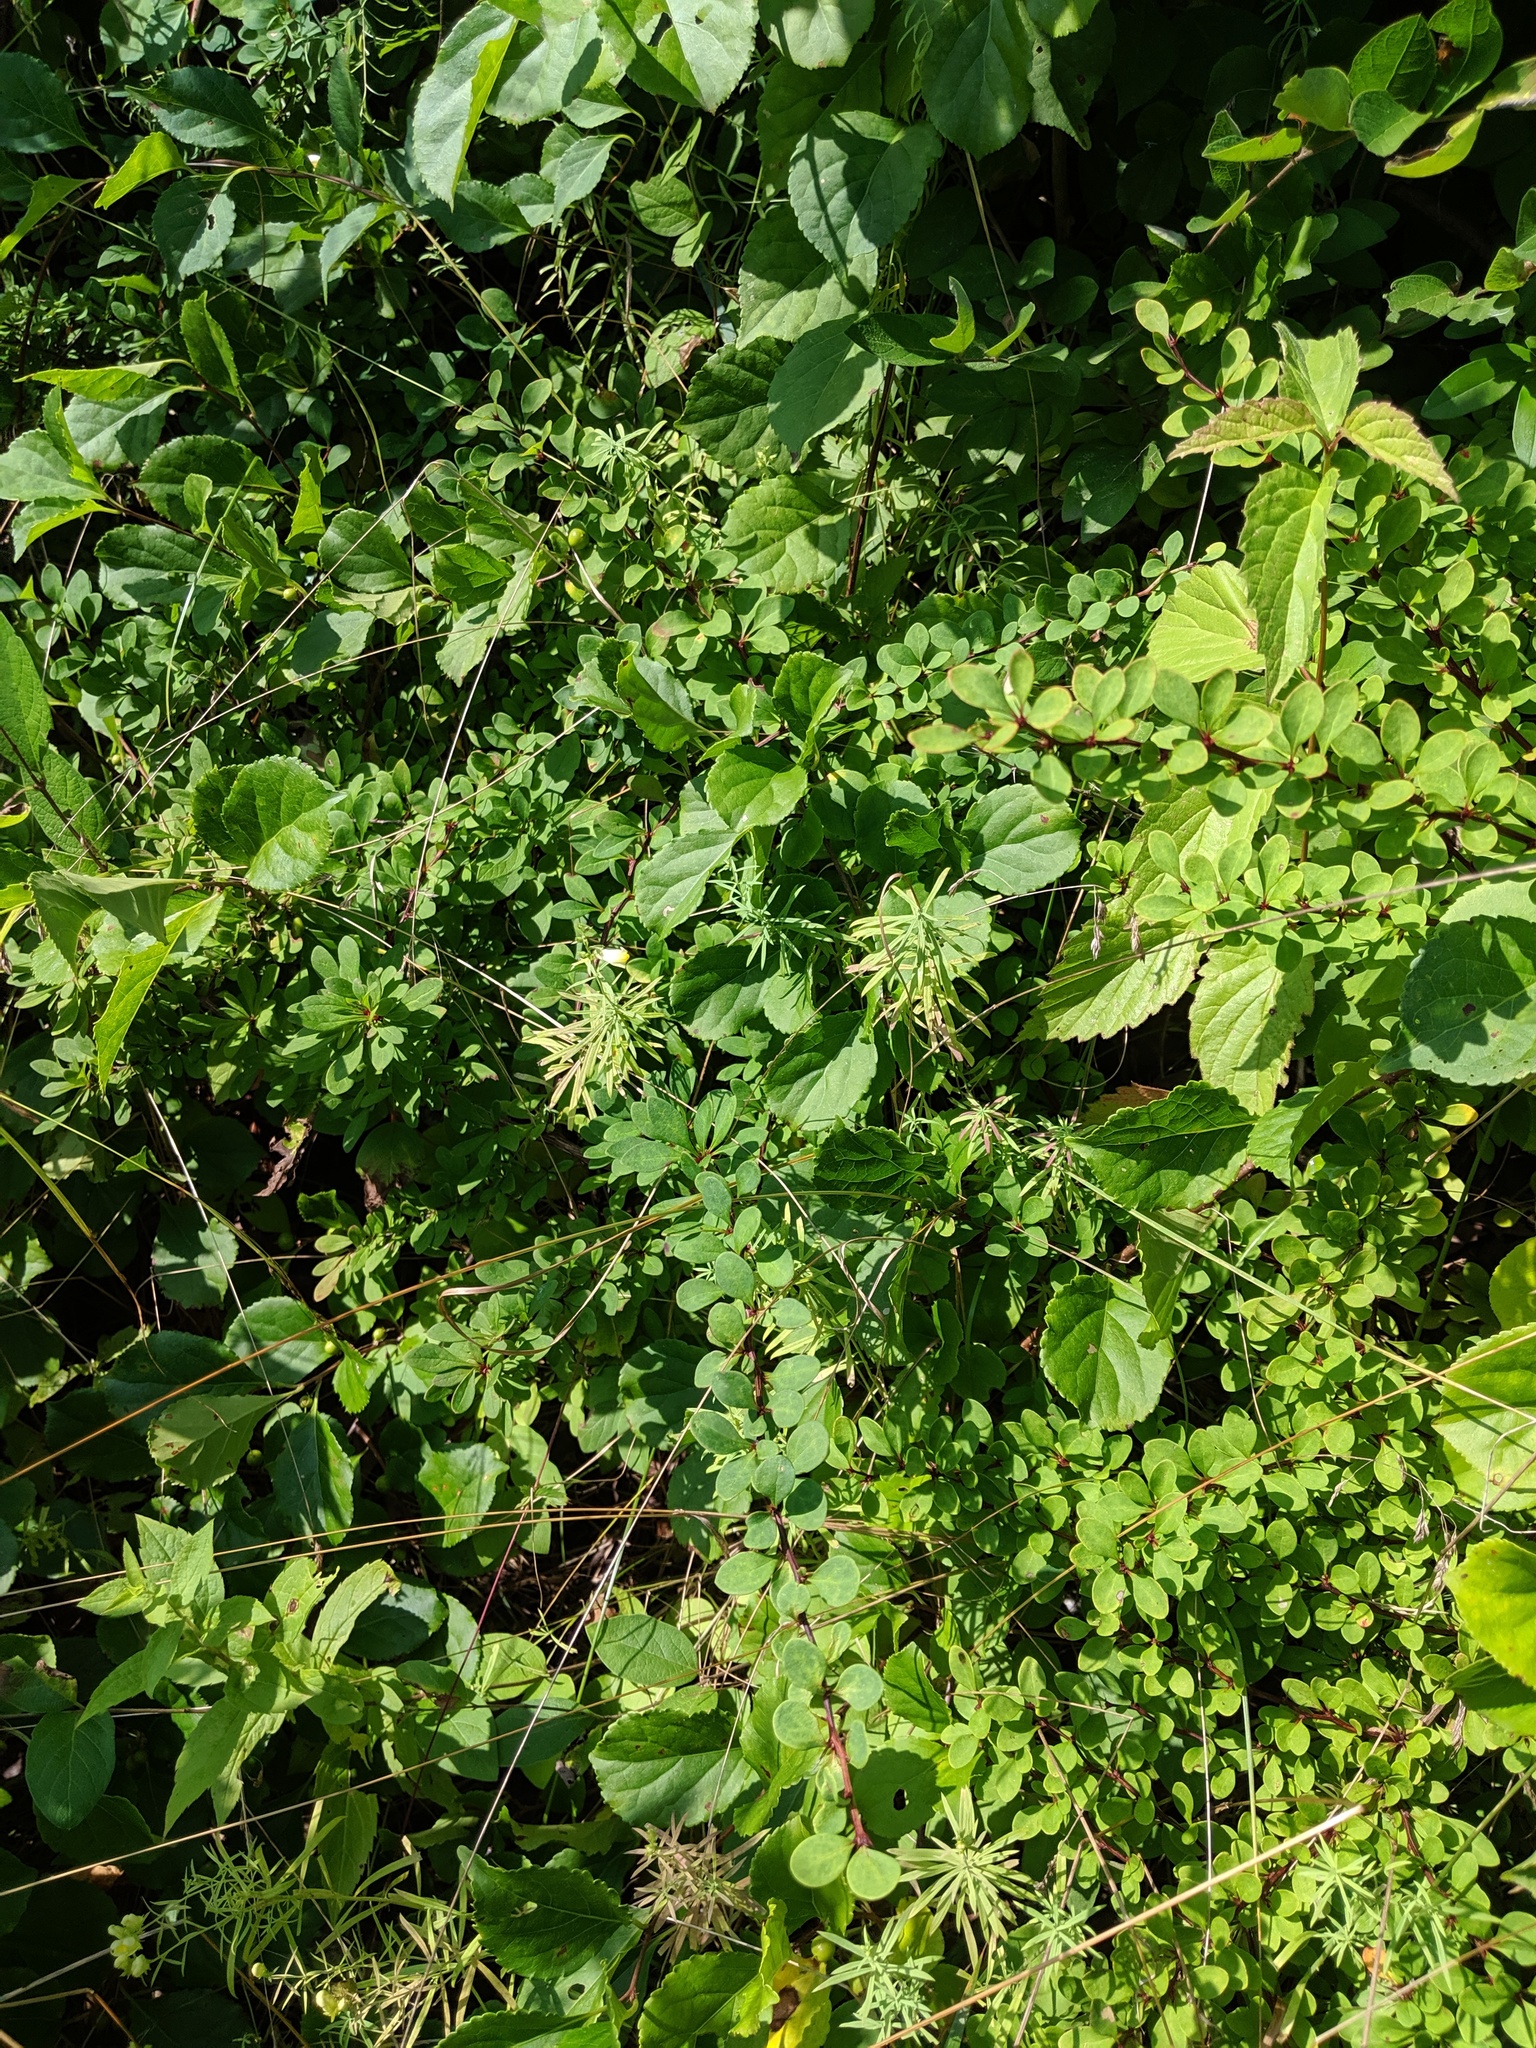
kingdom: Plantae
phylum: Tracheophyta
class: Magnoliopsida
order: Ranunculales
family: Berberidaceae
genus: Berberis
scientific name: Berberis thunbergii
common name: Japanese barberry
